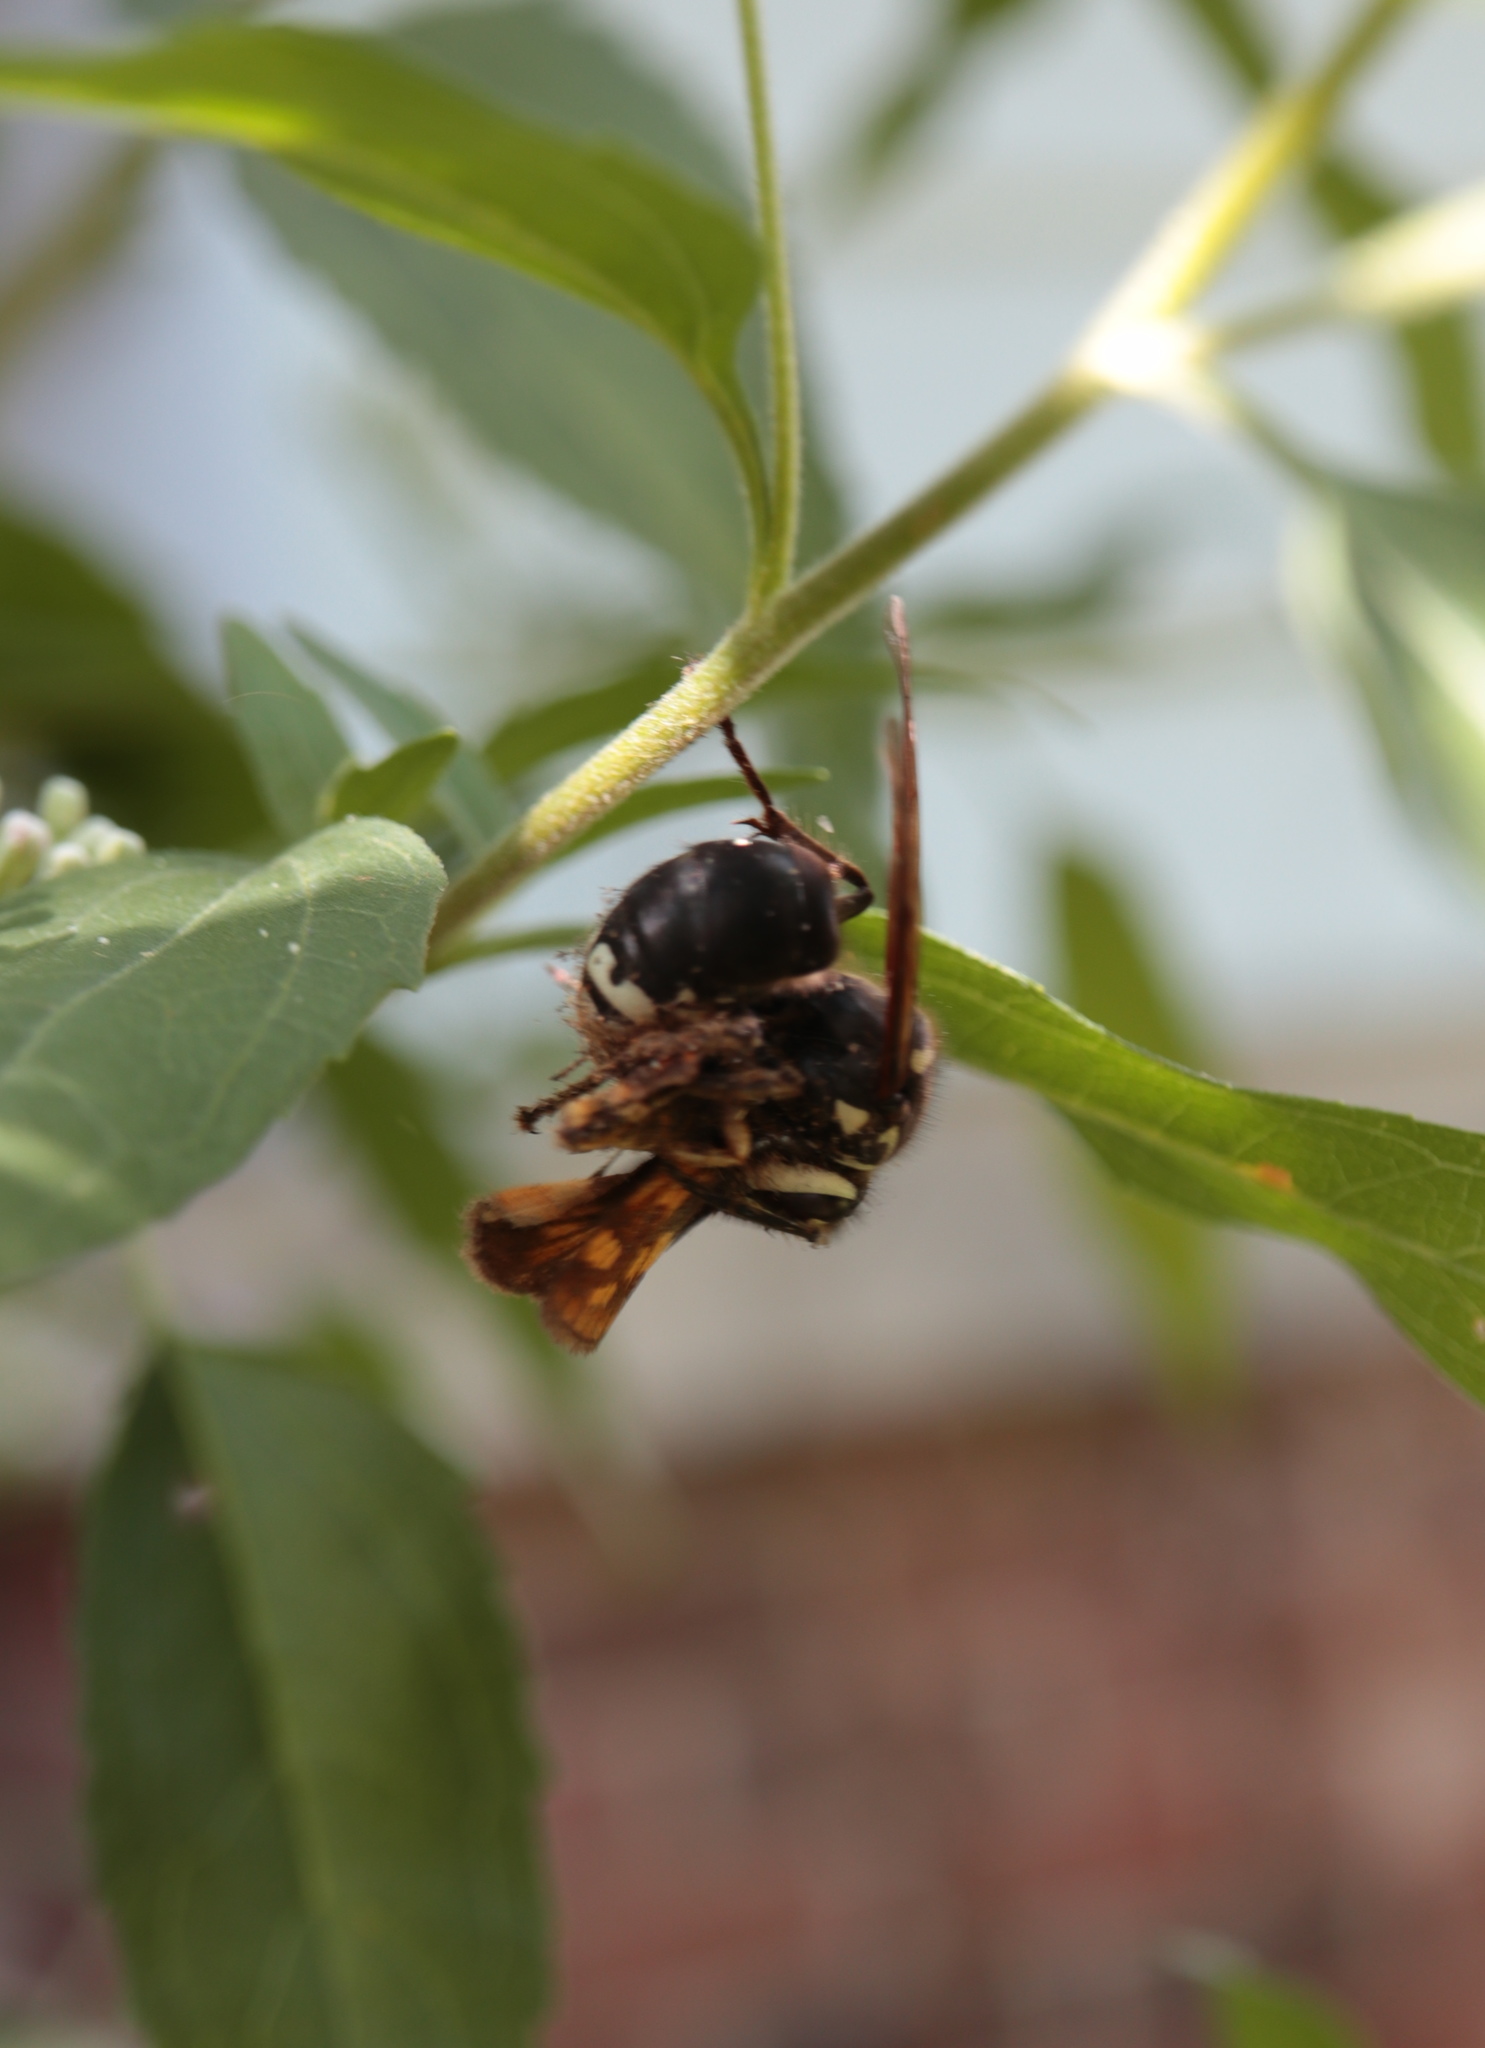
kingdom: Animalia
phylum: Arthropoda
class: Insecta
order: Hymenoptera
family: Vespidae
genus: Dolichovespula
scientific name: Dolichovespula maculata
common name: Bald-faced hornet
